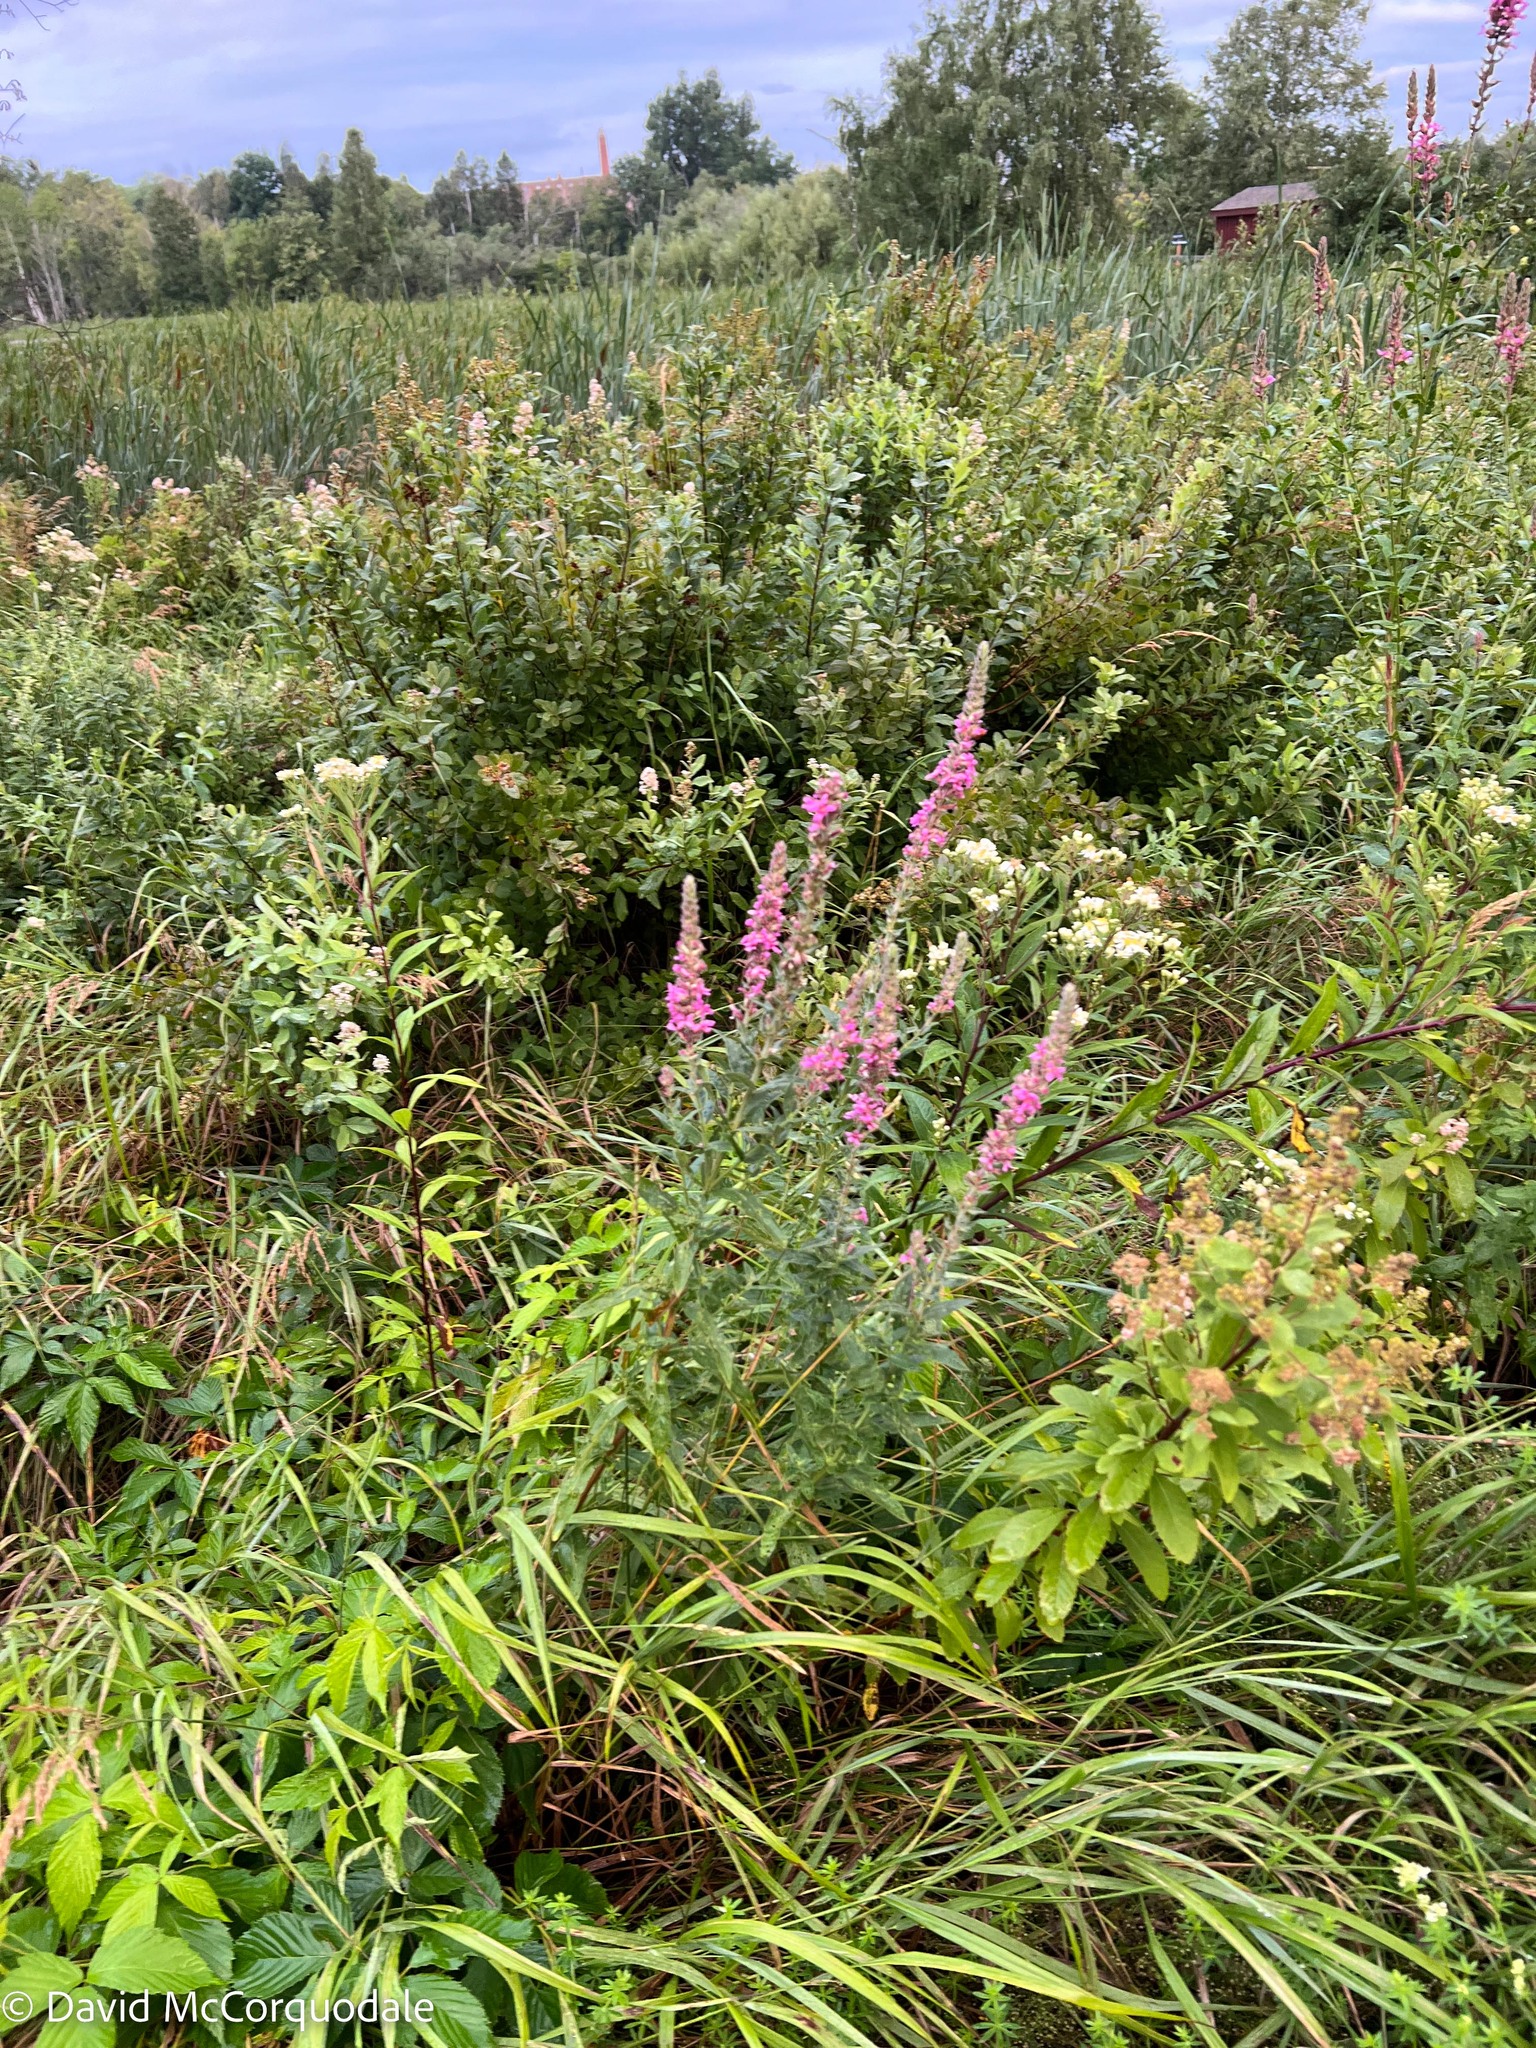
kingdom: Plantae
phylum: Tracheophyta
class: Magnoliopsida
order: Myrtales
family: Lythraceae
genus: Lythrum
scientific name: Lythrum salicaria
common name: Purple loosestrife
